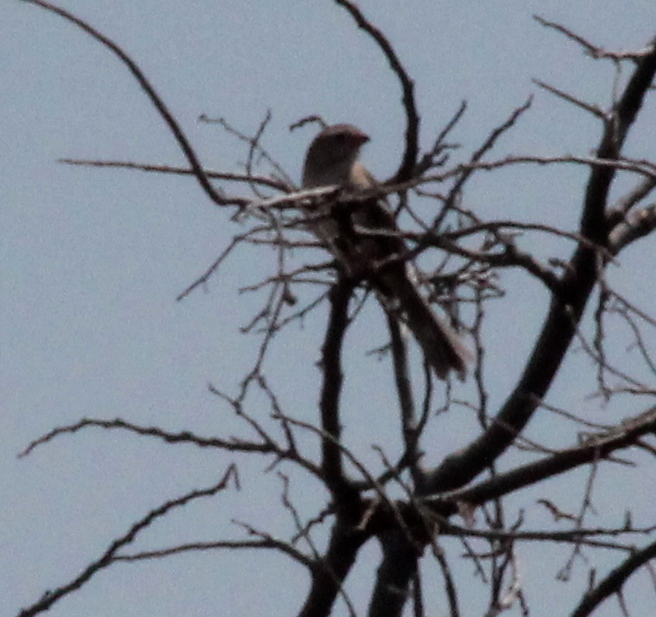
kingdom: Animalia
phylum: Chordata
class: Aves
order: Passeriformes
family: Passerellidae
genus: Spizella
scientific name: Spizella pusilla
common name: Field sparrow
